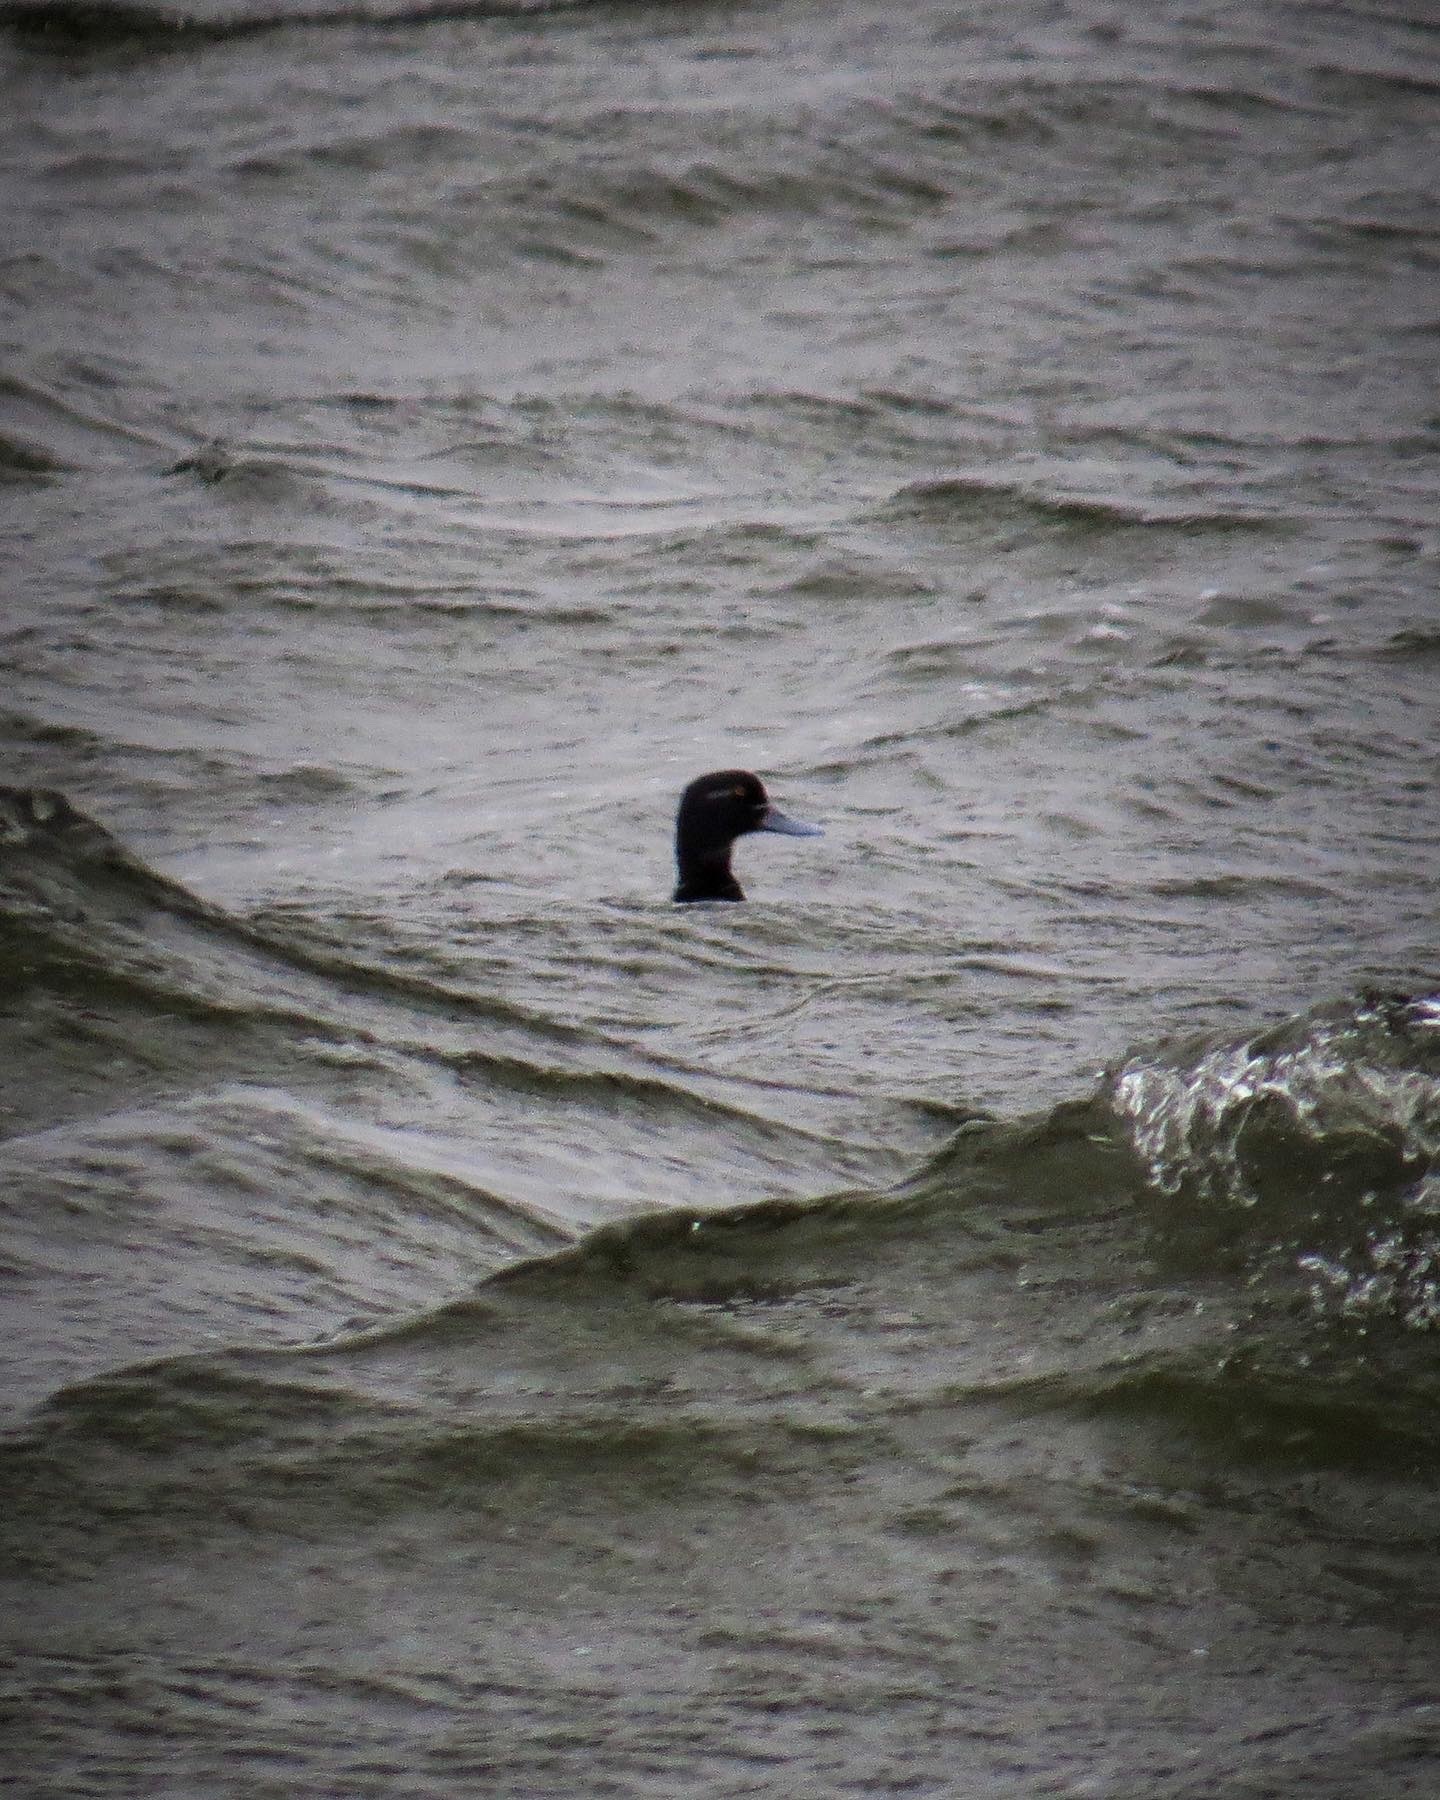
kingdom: Animalia
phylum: Chordata
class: Aves
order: Anseriformes
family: Anatidae
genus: Aythya
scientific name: Aythya affinis
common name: Lesser scaup
